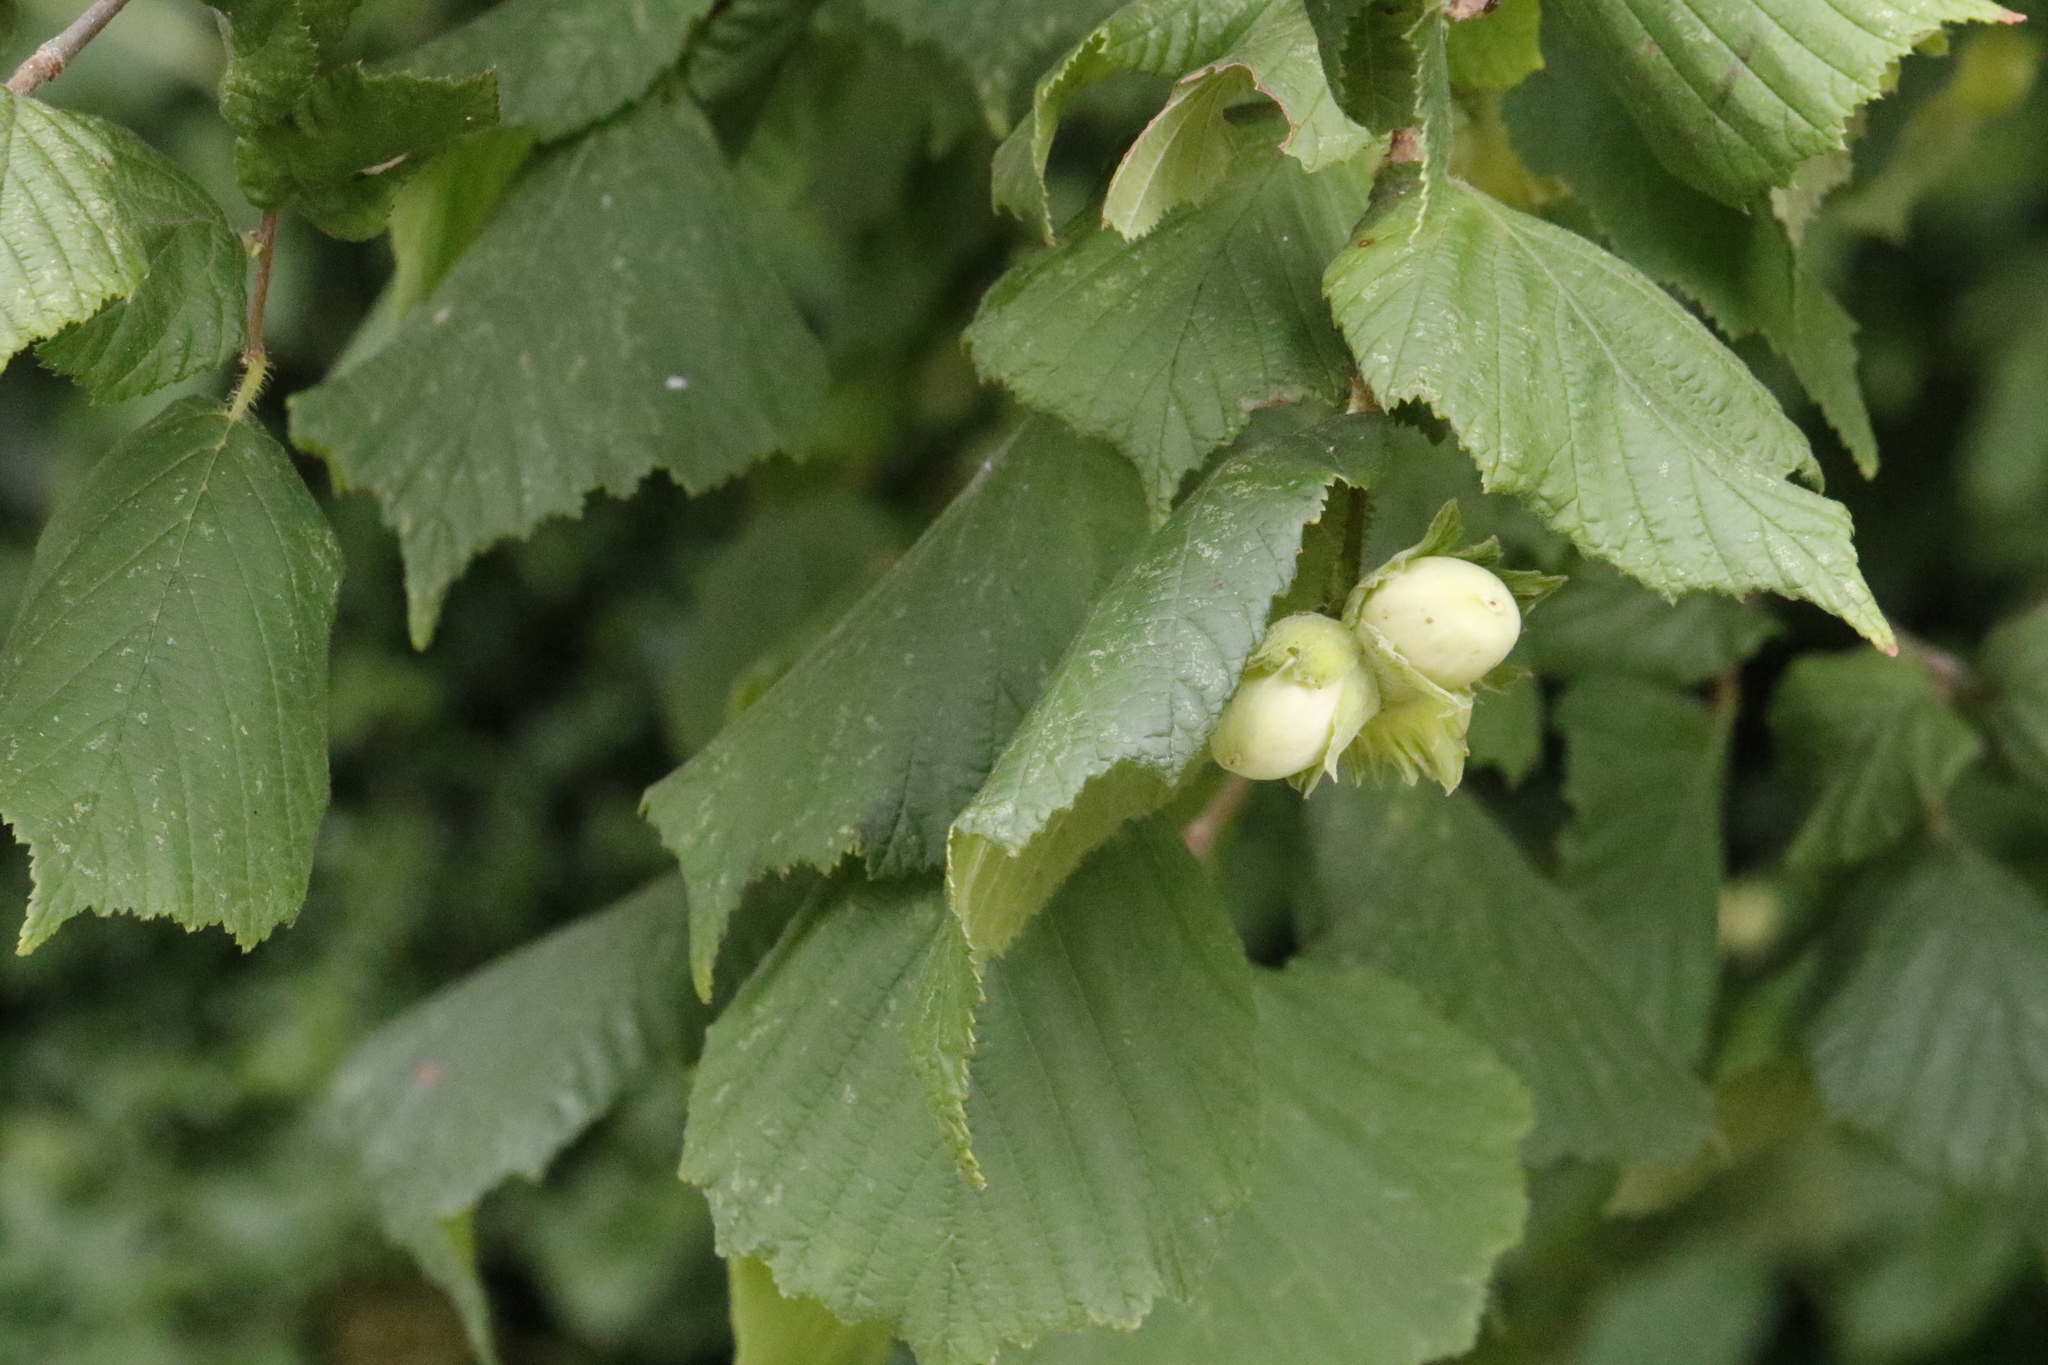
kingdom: Plantae
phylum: Tracheophyta
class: Magnoliopsida
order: Fagales
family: Betulaceae
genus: Corylus
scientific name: Corylus avellana
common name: European hazel
